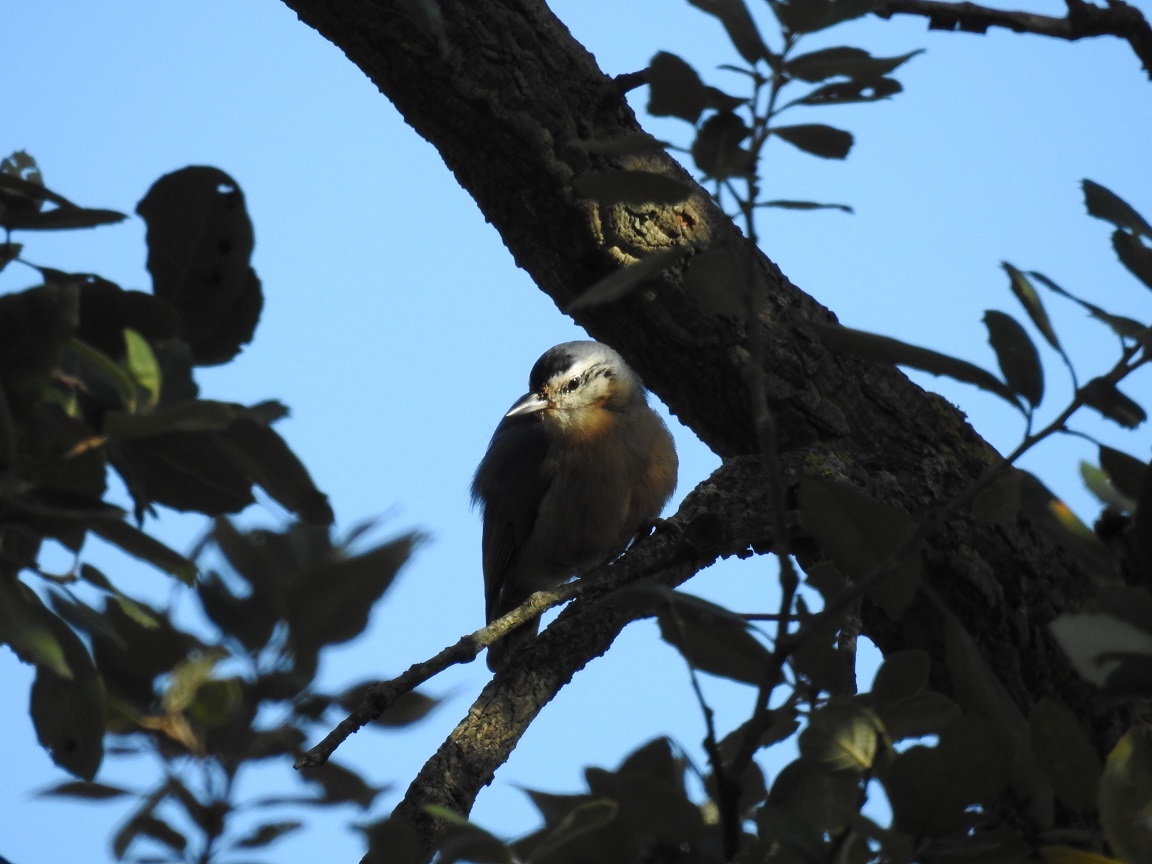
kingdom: Animalia
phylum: Chordata
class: Aves
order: Passeriformes
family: Sittidae
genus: Sitta
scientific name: Sitta ledanti
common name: Algerian nuthatch
